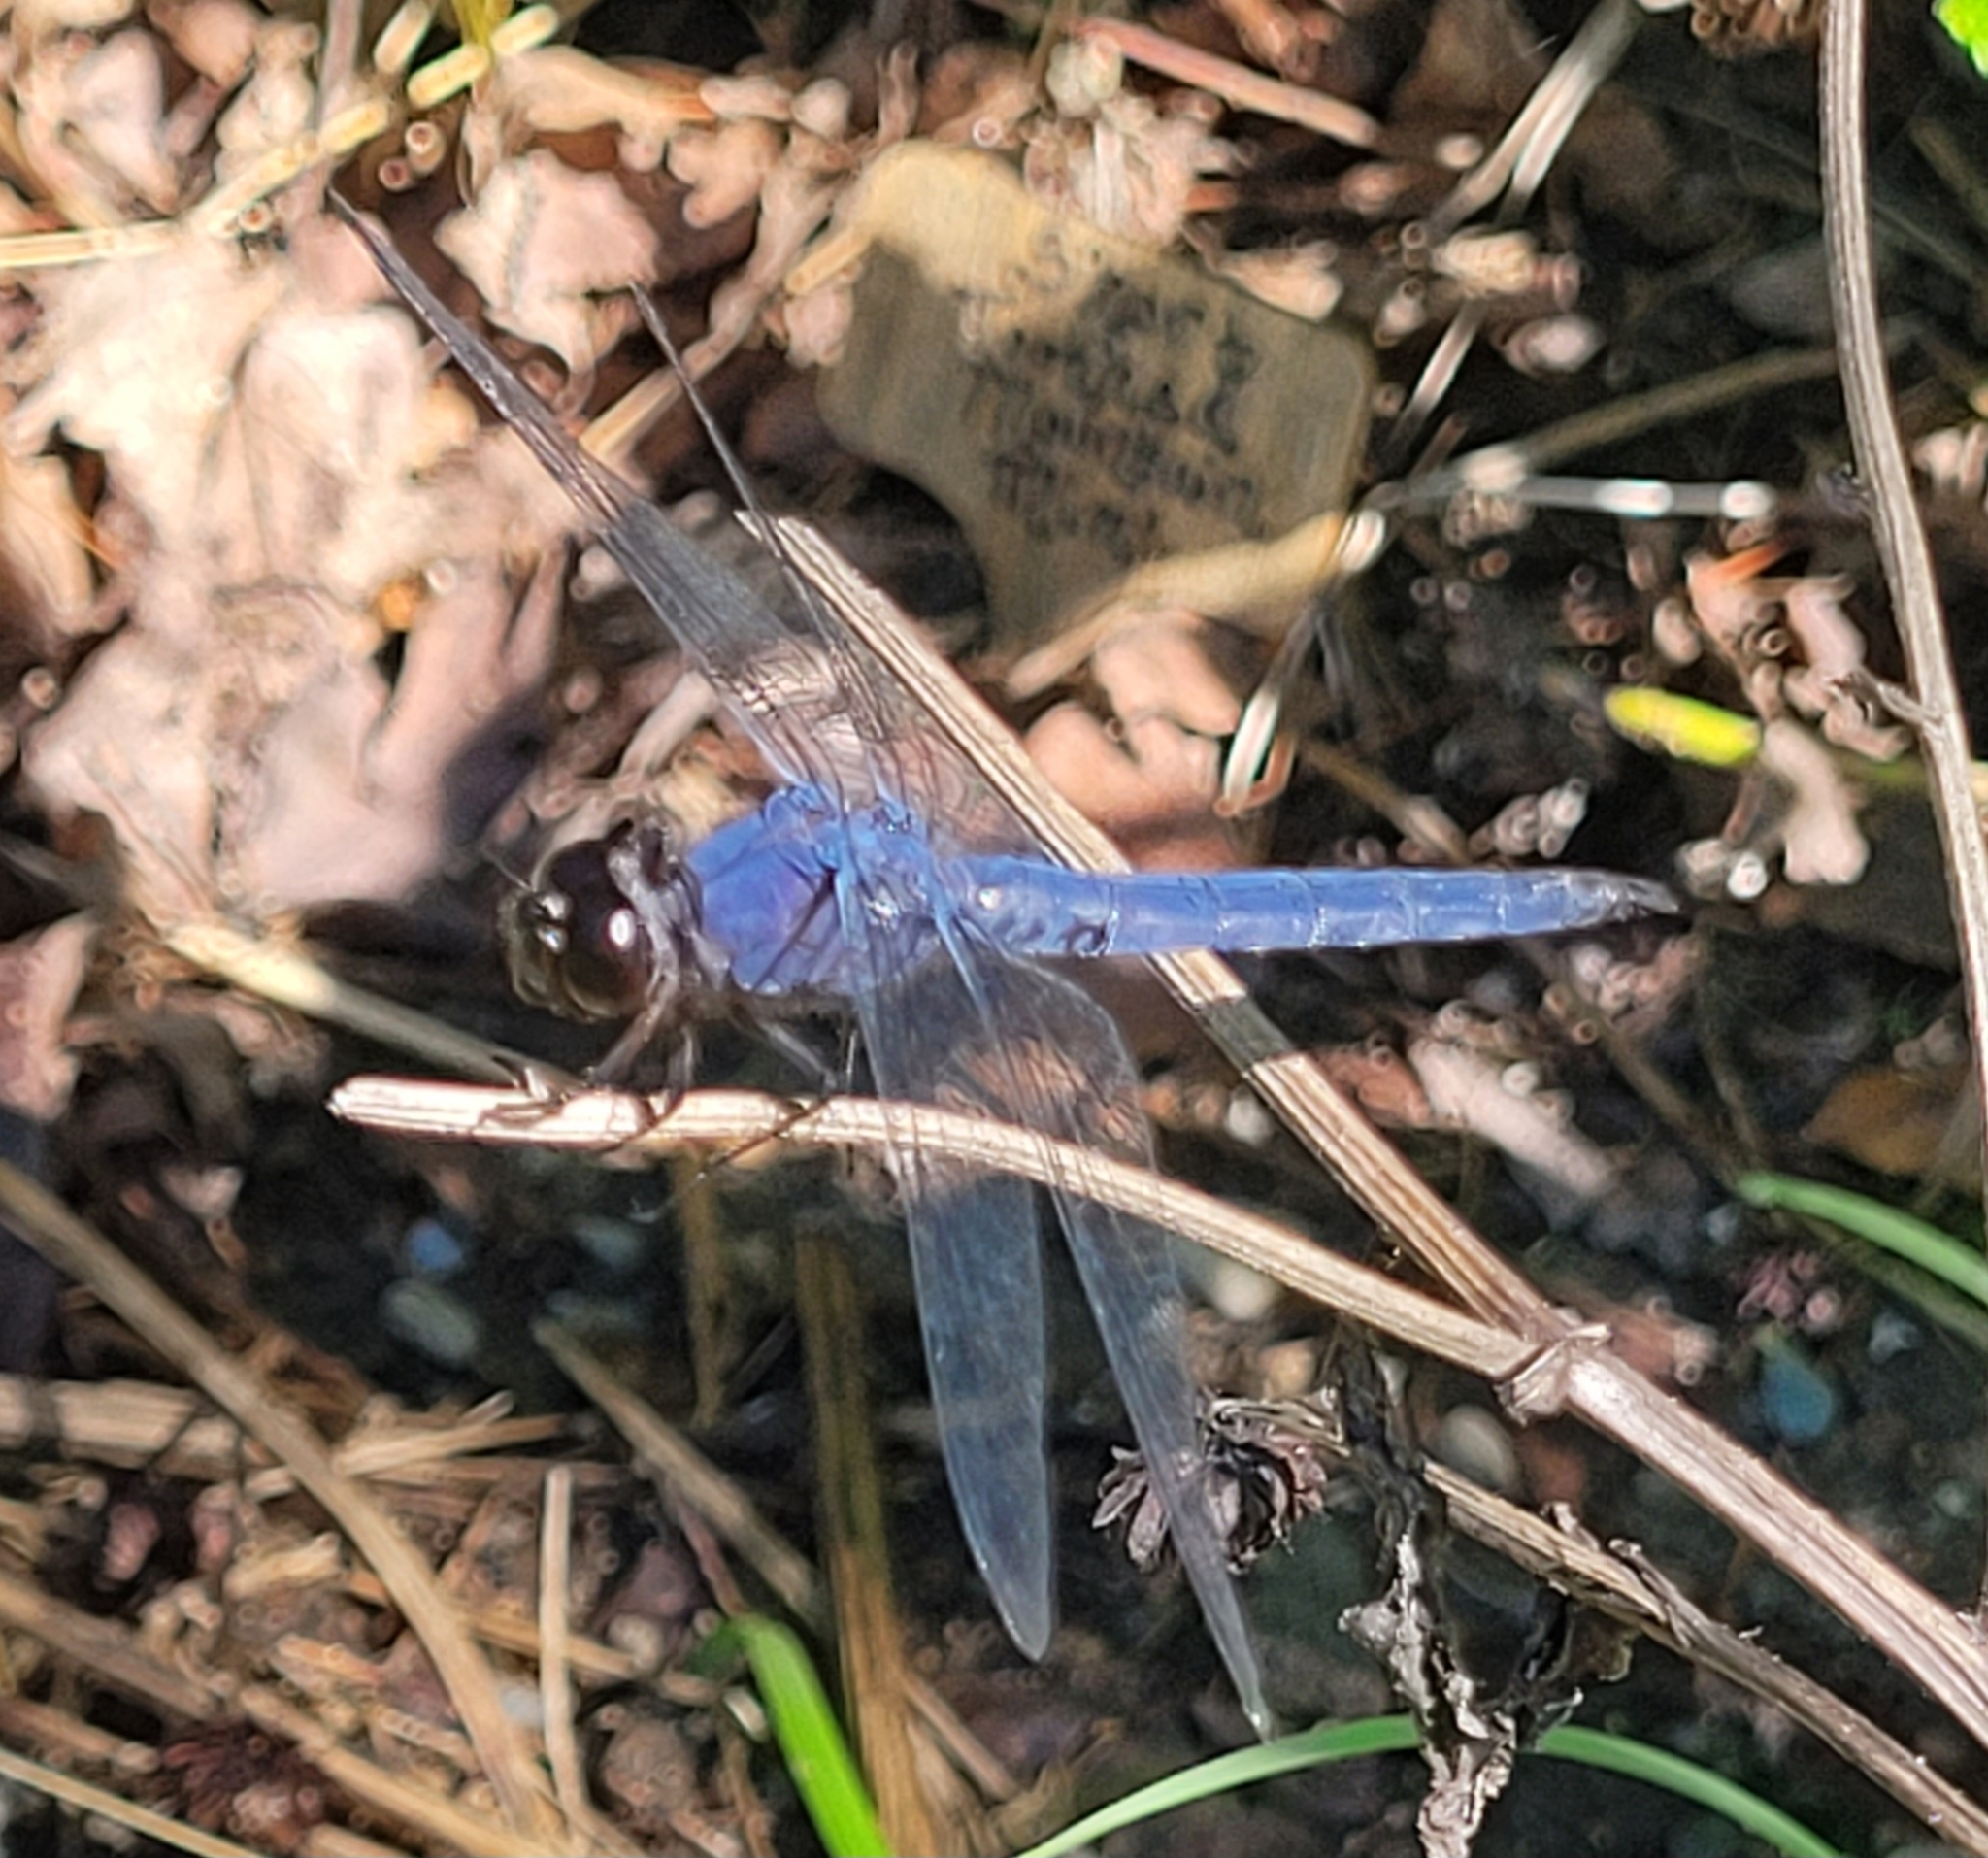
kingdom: Animalia
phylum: Arthropoda
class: Insecta
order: Odonata
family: Libellulidae
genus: Libellula
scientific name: Libellula incesta
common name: Slaty skimmer
